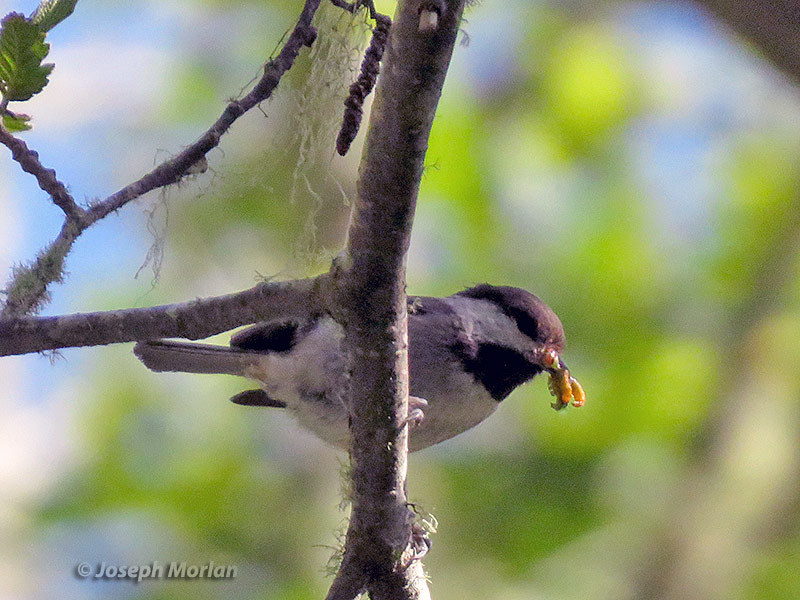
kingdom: Animalia
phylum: Chordata
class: Aves
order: Passeriformes
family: Paridae
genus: Poecile
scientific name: Poecile rufescens
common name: Chestnut-backed chickadee
